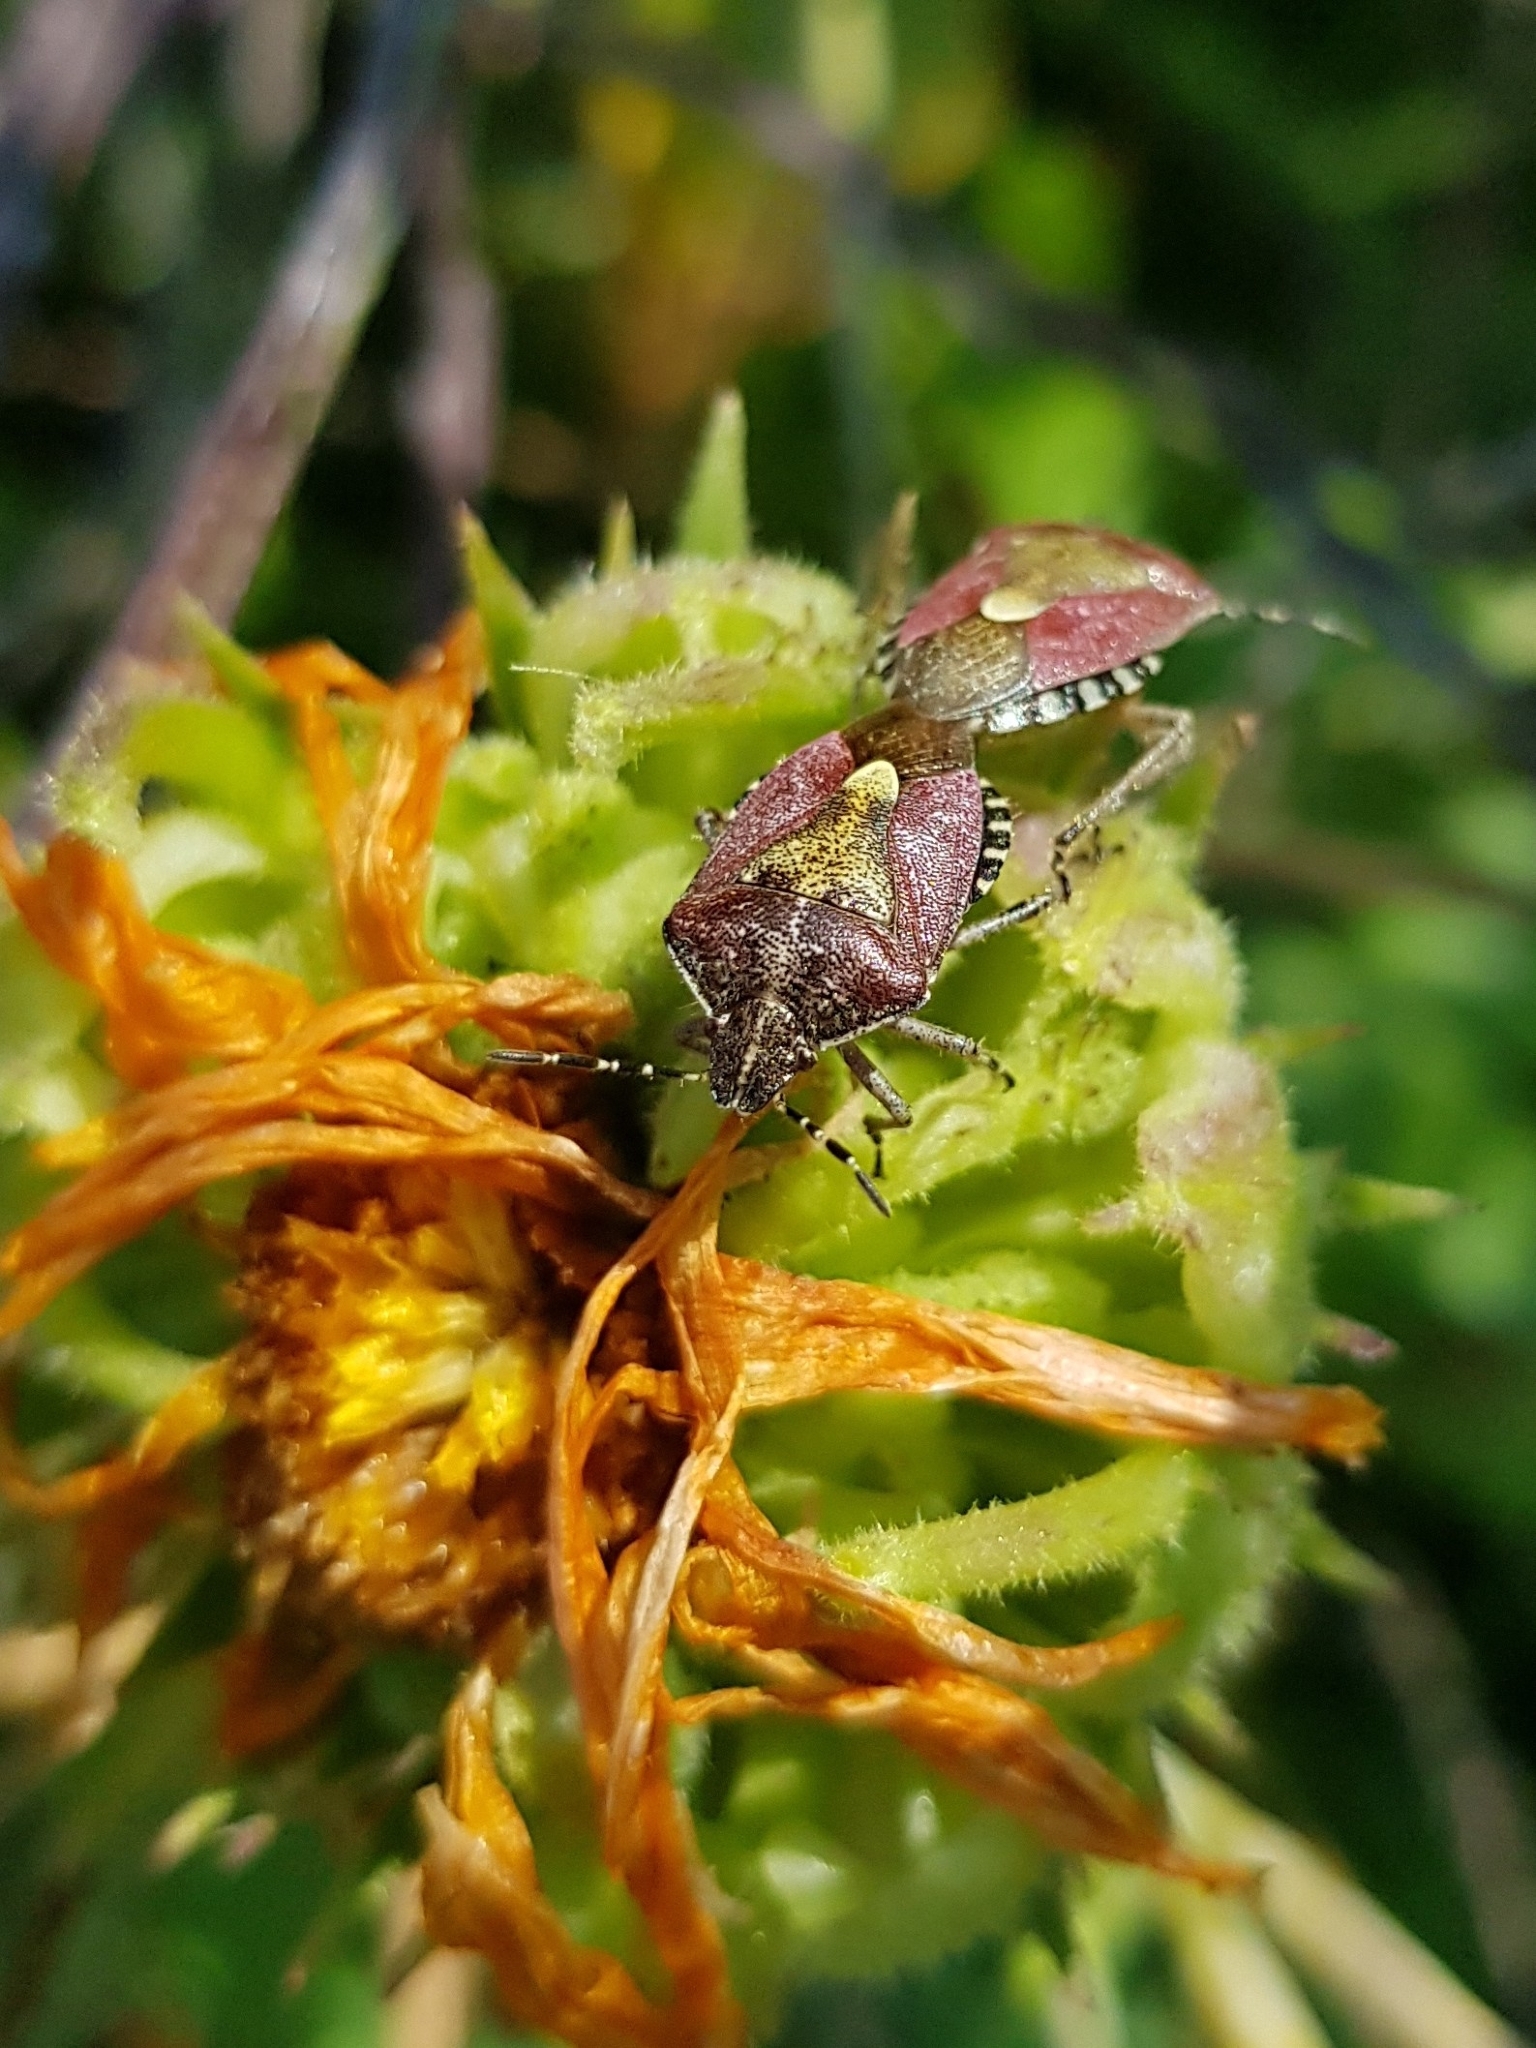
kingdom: Animalia
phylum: Arthropoda
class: Insecta
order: Hemiptera
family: Pentatomidae
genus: Dolycoris
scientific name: Dolycoris baccarum
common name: Sloe bug
